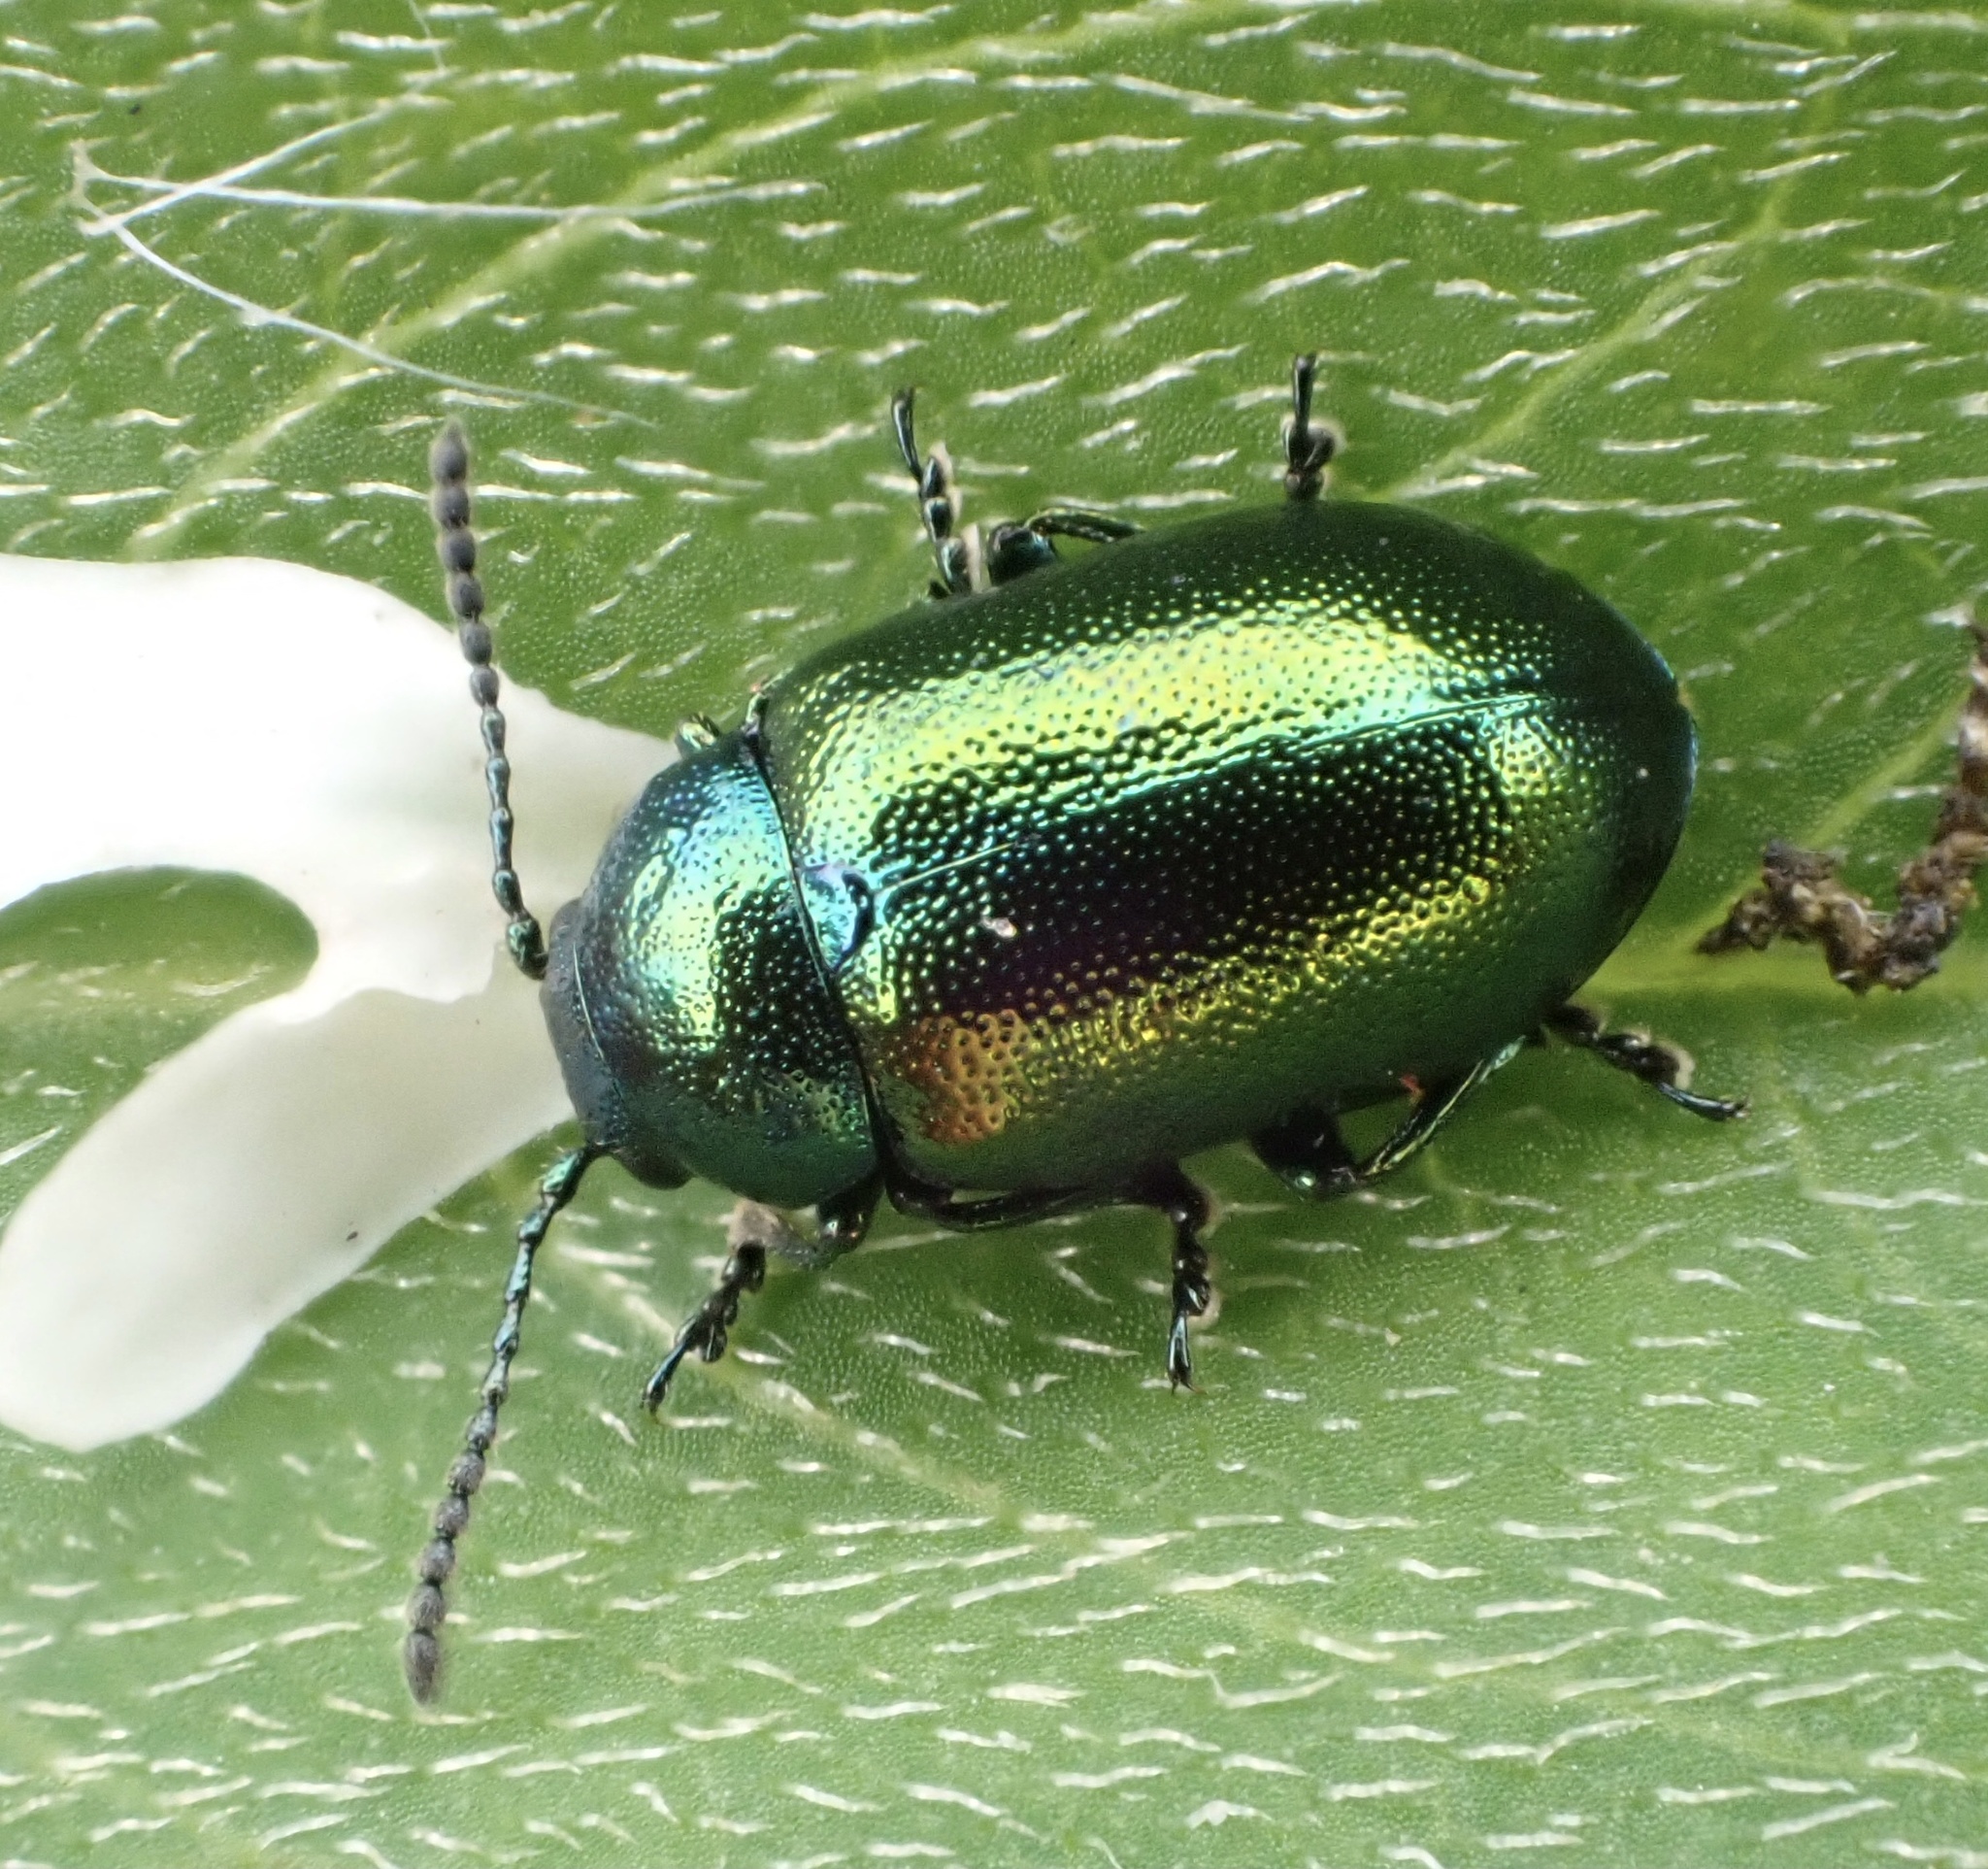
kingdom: Animalia
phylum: Arthropoda
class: Insecta
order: Coleoptera
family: Chrysomelidae
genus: Gastrophysa
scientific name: Gastrophysa viridula
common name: Green dock beetle
